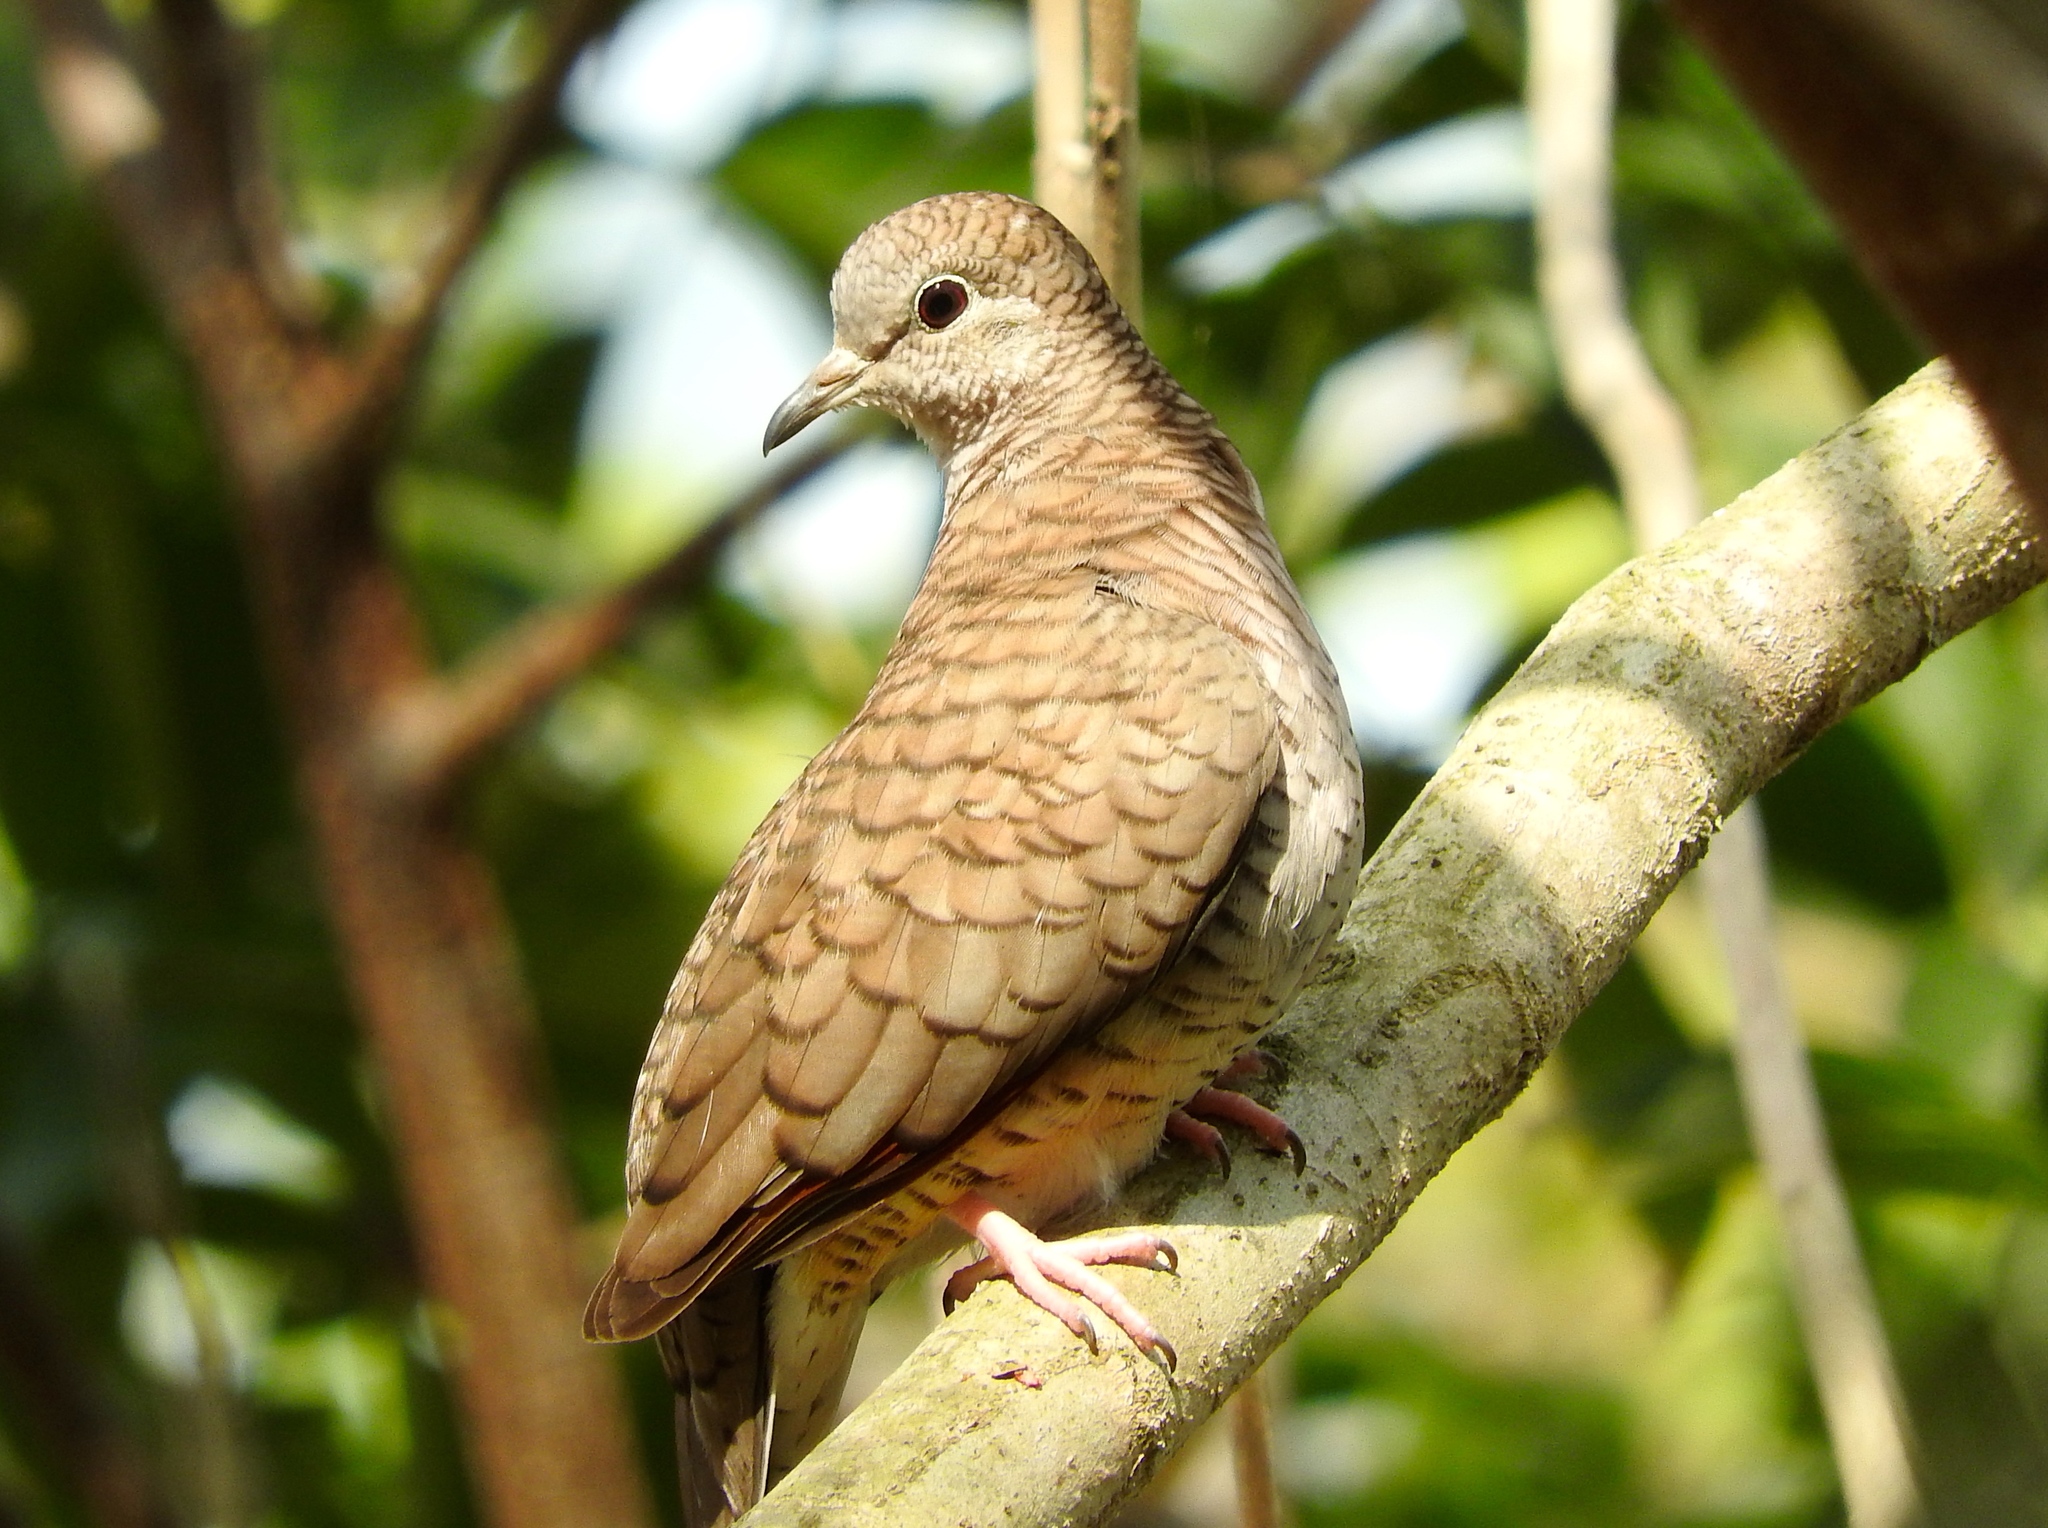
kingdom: Animalia
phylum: Chordata
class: Aves
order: Columbiformes
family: Columbidae
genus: Columbina
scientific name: Columbina inca
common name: Inca dove
